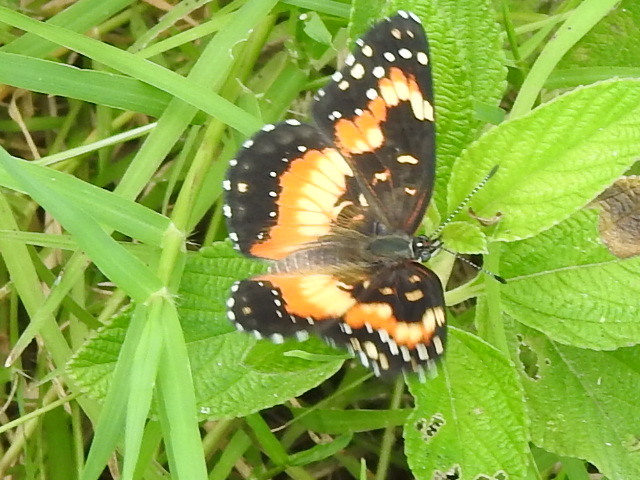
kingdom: Animalia
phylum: Arthropoda
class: Insecta
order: Lepidoptera
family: Nymphalidae
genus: Chlosyne
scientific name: Chlosyne lacinia
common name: Bordered patch
